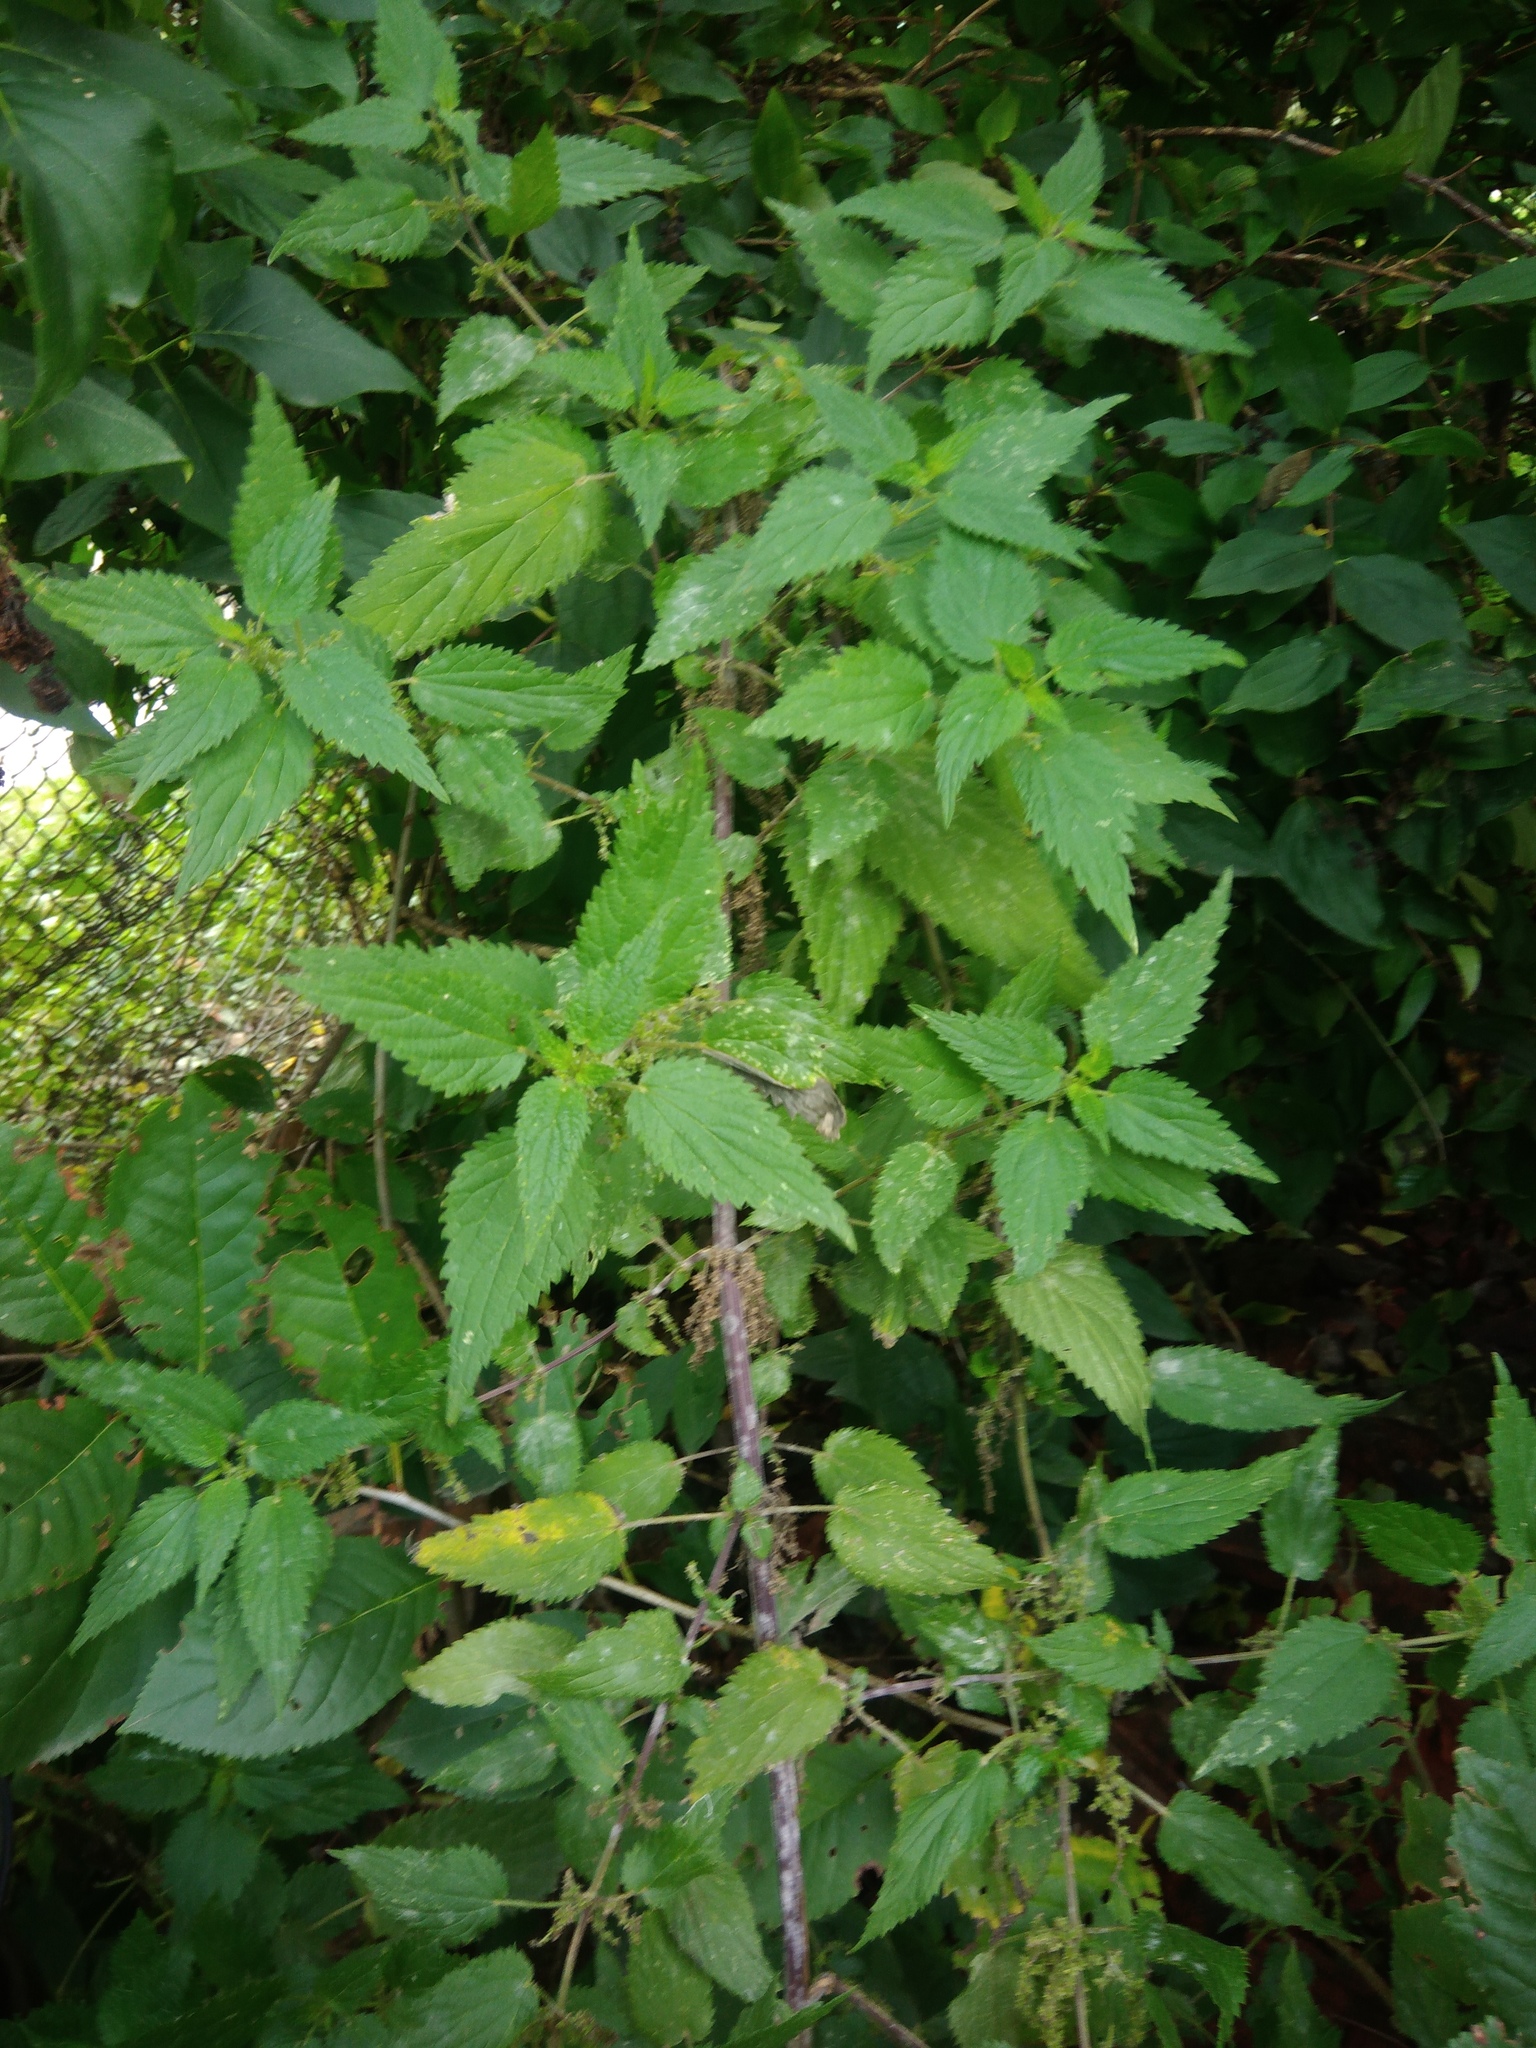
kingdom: Plantae
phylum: Tracheophyta
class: Magnoliopsida
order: Rosales
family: Urticaceae
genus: Urtica
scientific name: Urtica dioica
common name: Common nettle
